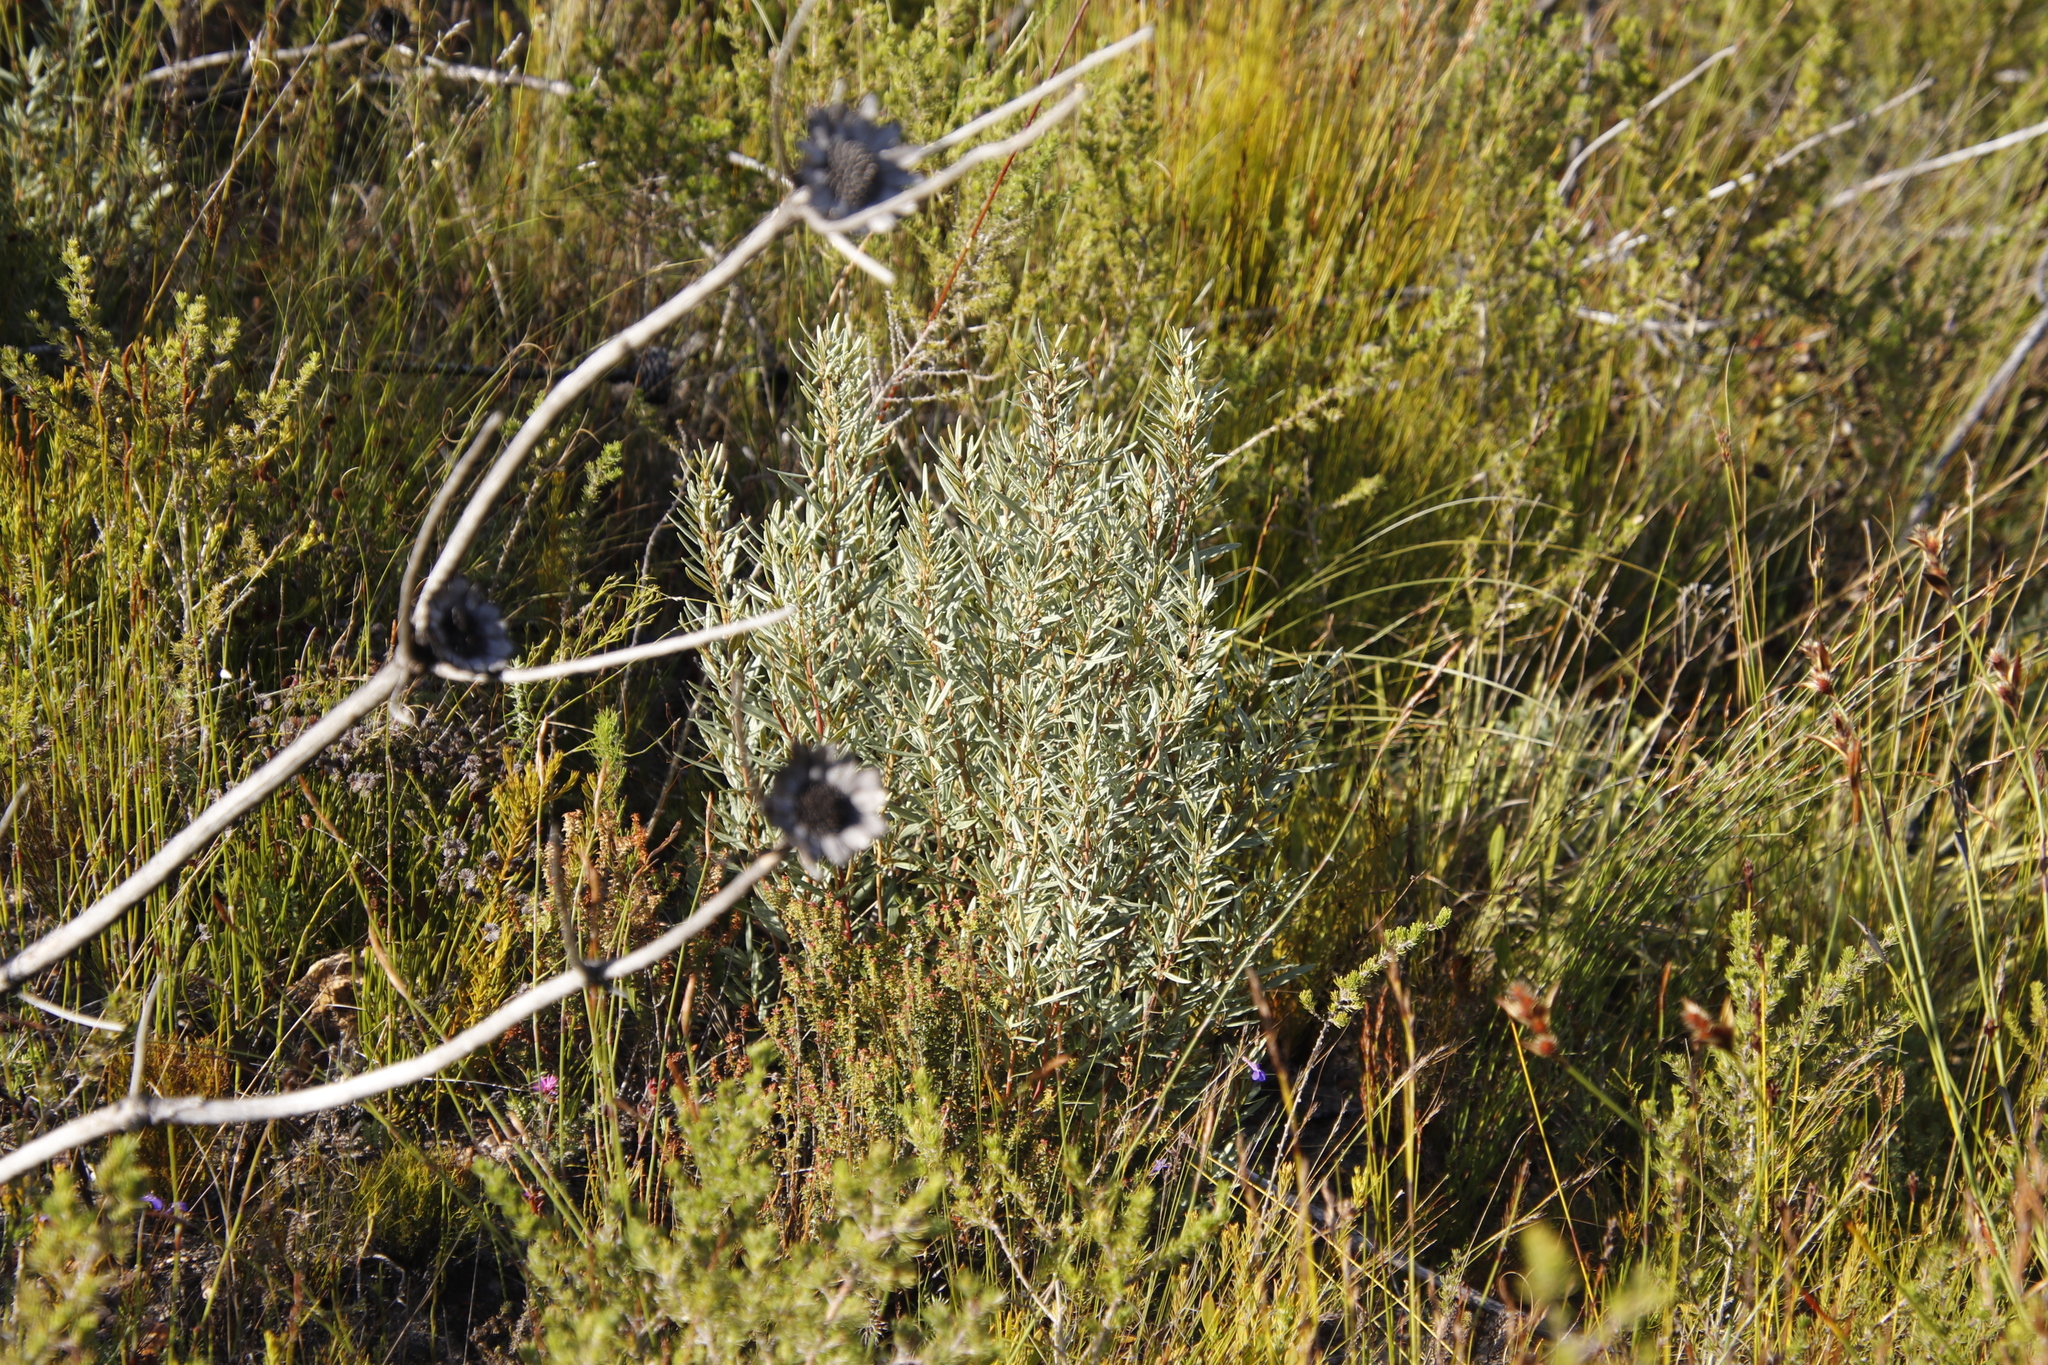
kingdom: Plantae
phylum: Tracheophyta
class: Magnoliopsida
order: Cornales
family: Grubbiaceae
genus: Grubbia
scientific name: Grubbia tomentosa
